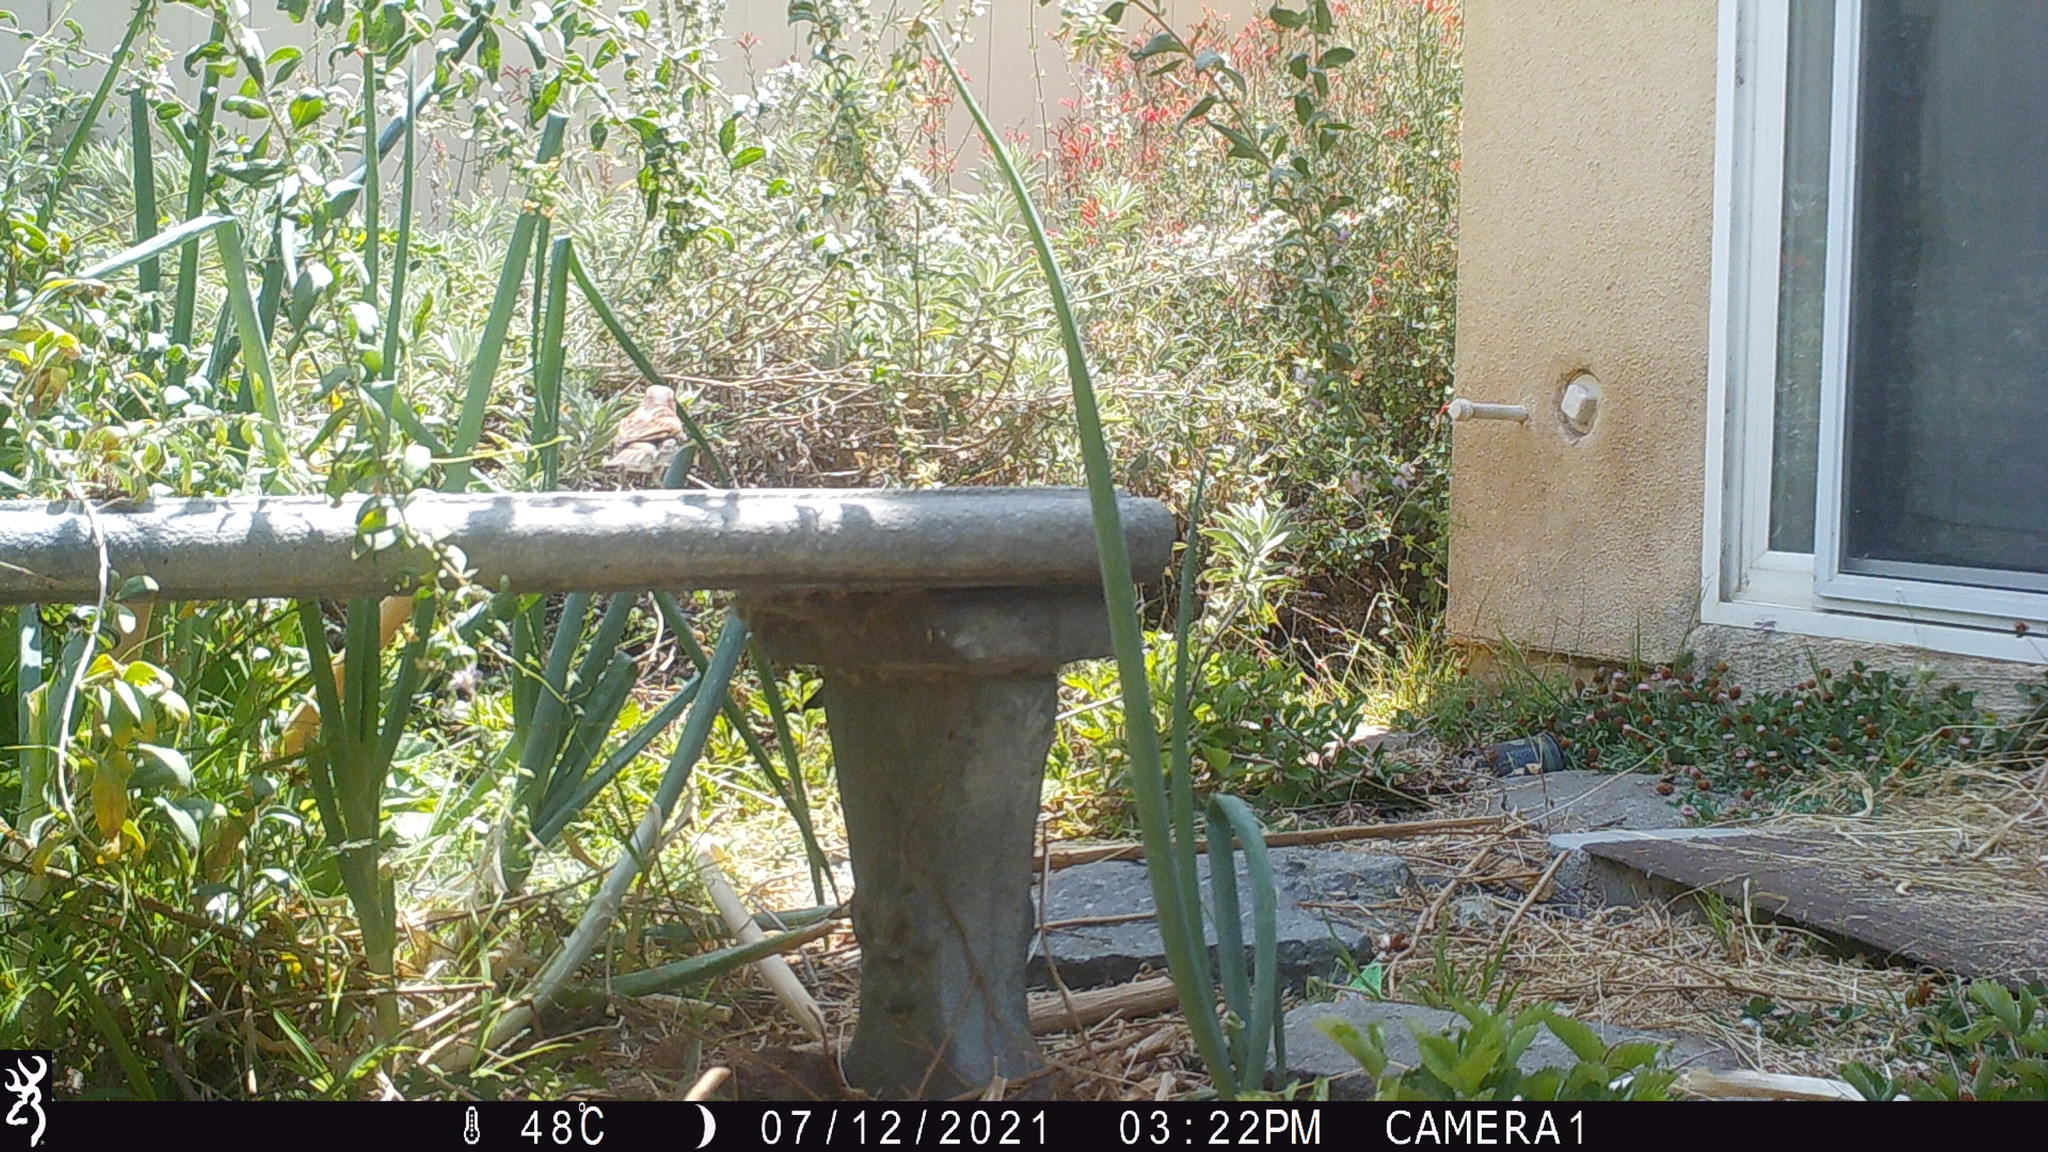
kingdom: Animalia
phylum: Chordata
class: Aves
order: Passeriformes
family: Passeridae
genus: Passer
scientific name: Passer domesticus
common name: House sparrow
